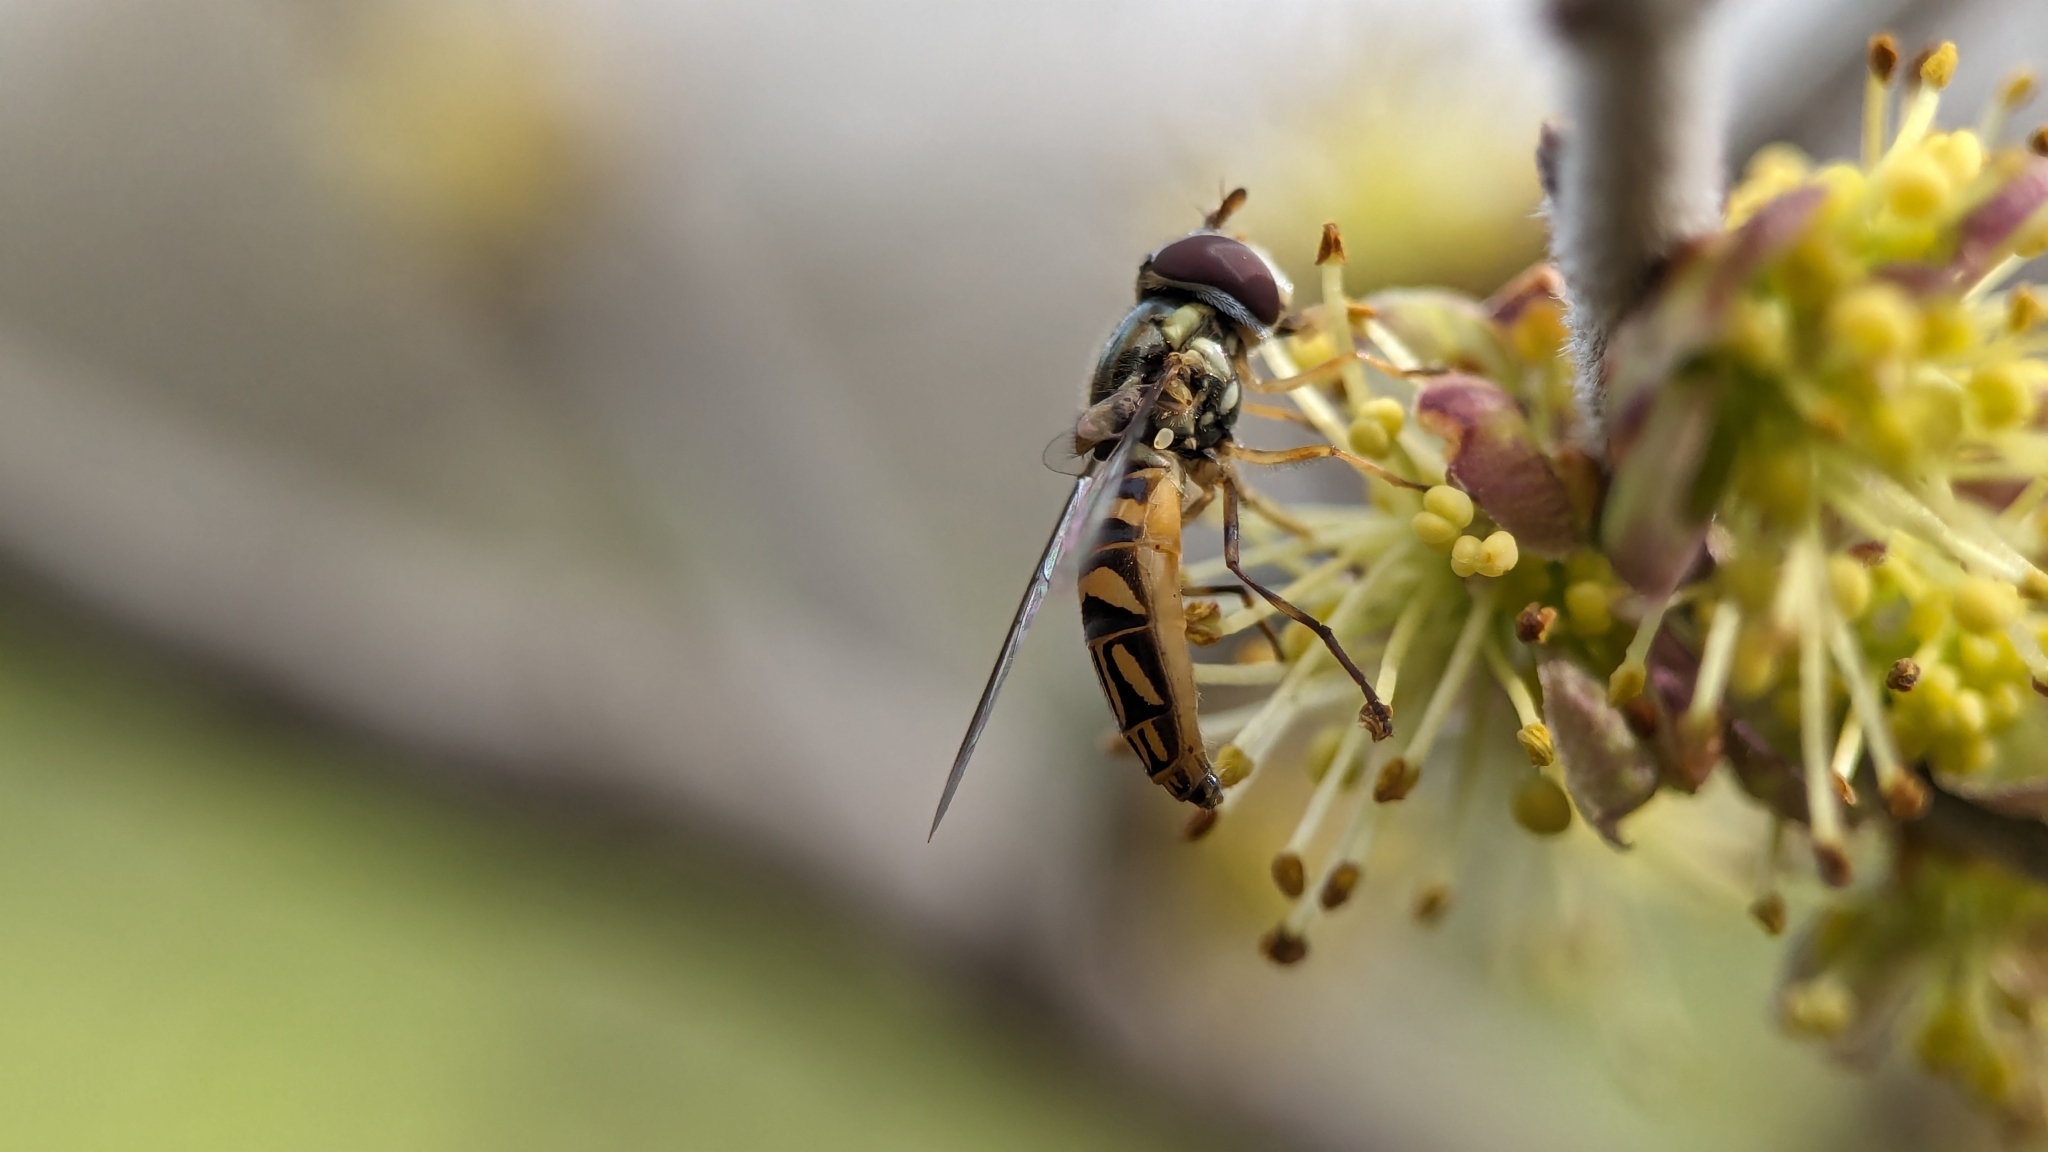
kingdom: Animalia
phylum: Arthropoda
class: Insecta
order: Diptera
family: Syrphidae
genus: Allograpta
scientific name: Allograpta obliqua
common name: Common oblique syrphid
